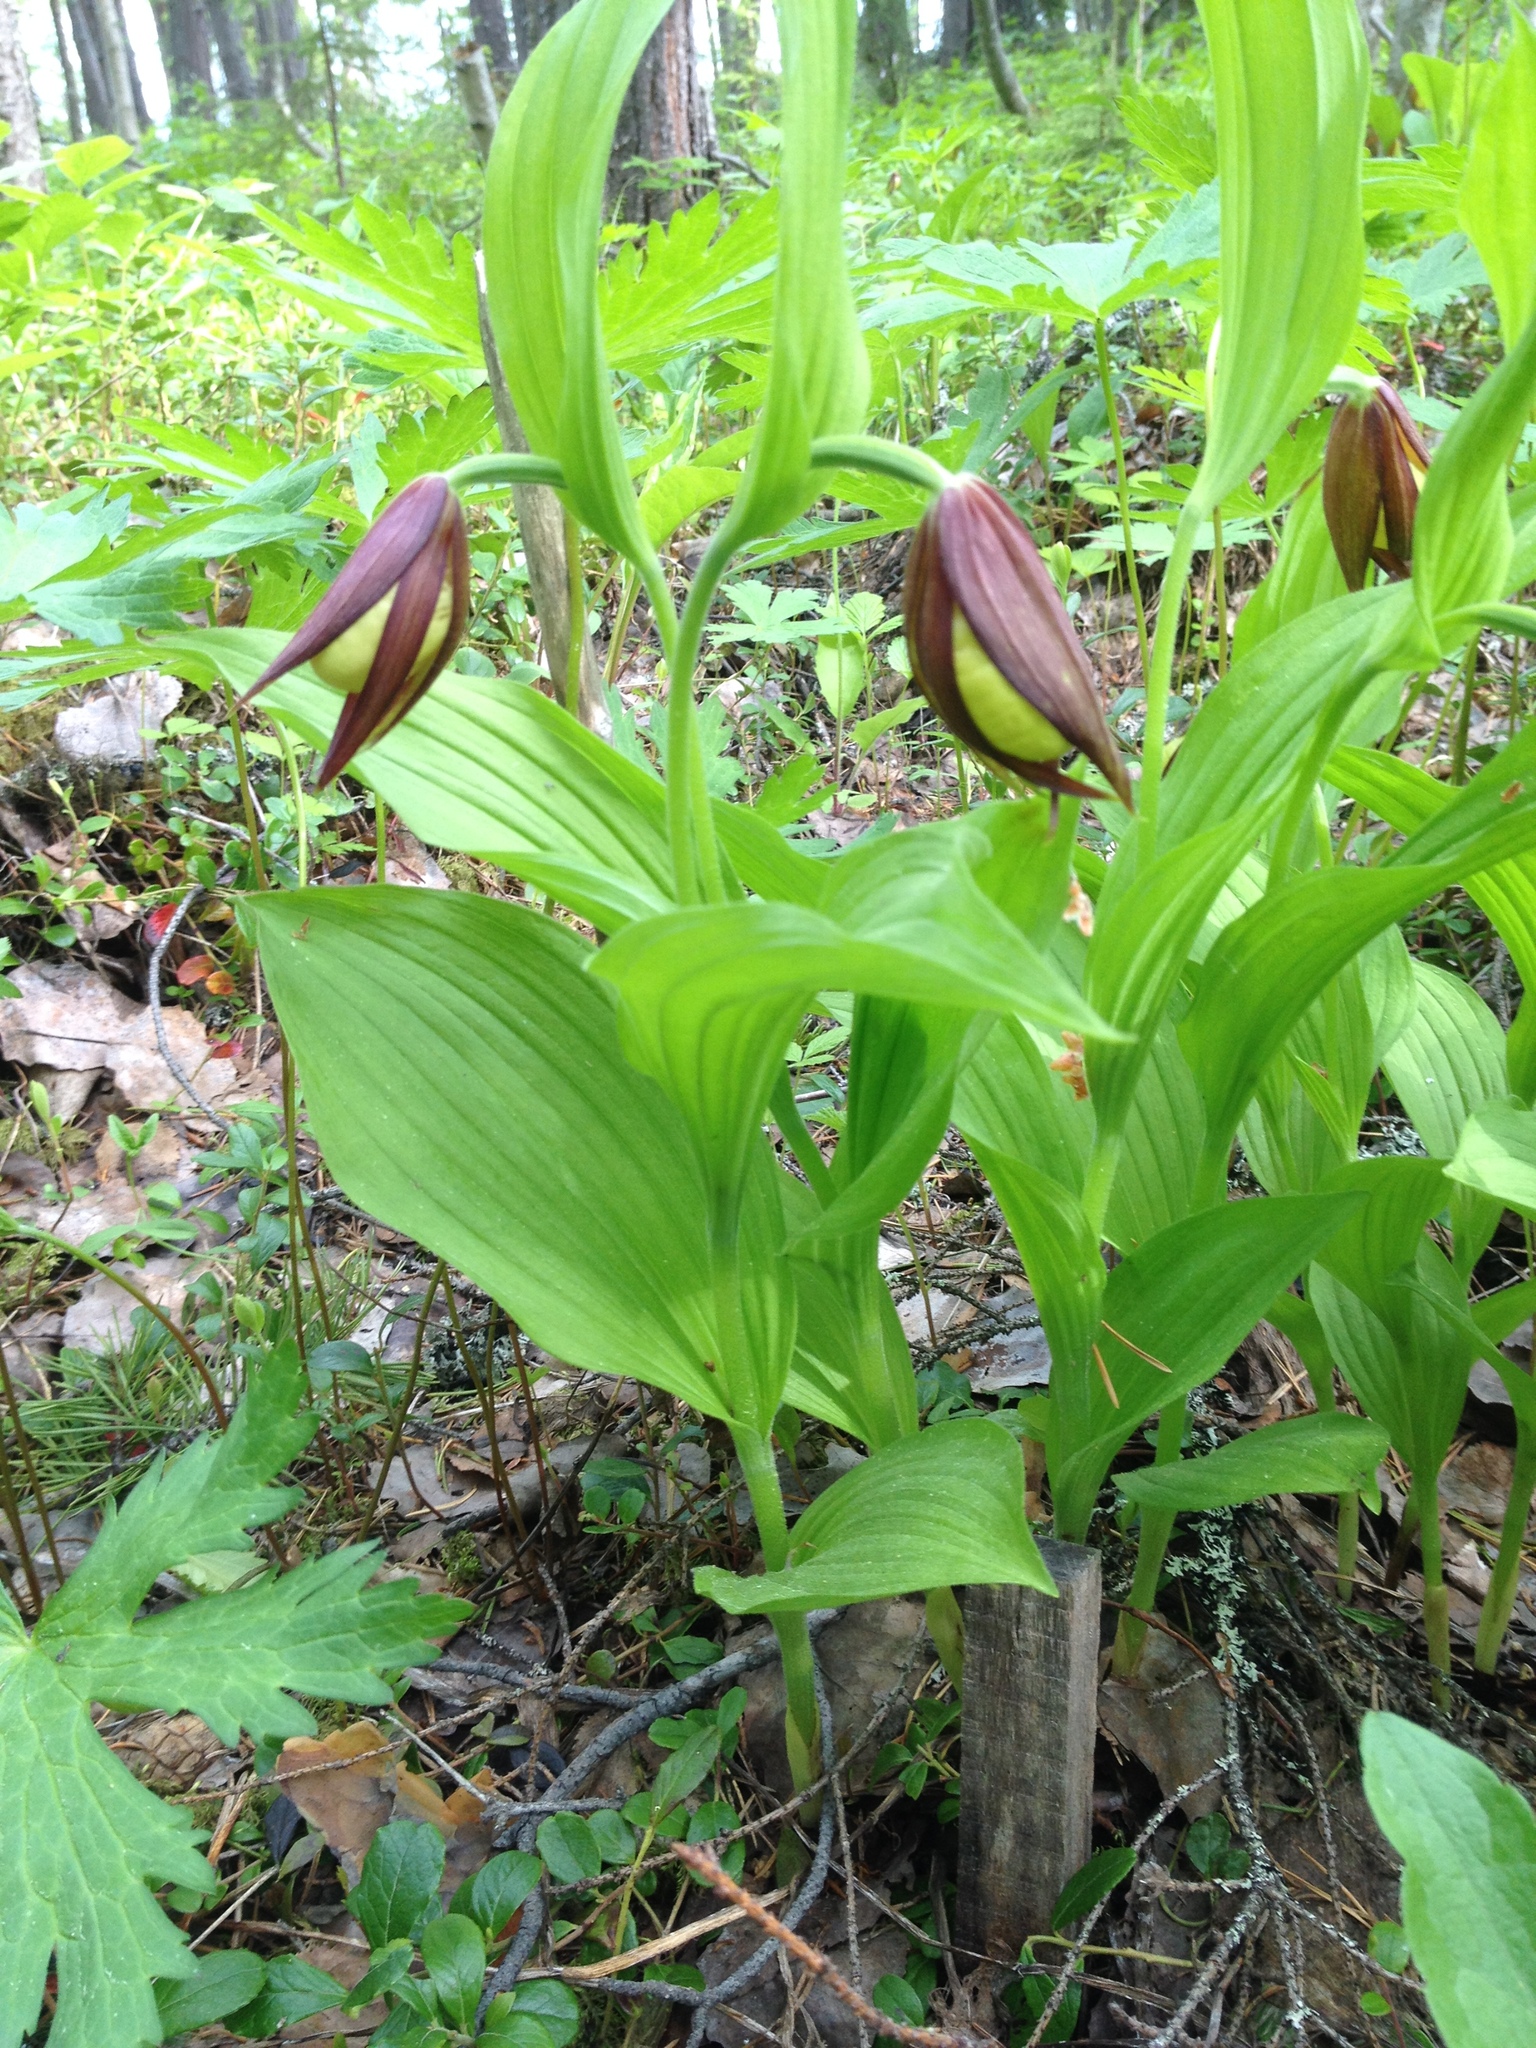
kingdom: Plantae
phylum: Tracheophyta
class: Liliopsida
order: Asparagales
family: Orchidaceae
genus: Cypripedium
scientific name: Cypripedium calceolus
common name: Lady's-slipper
